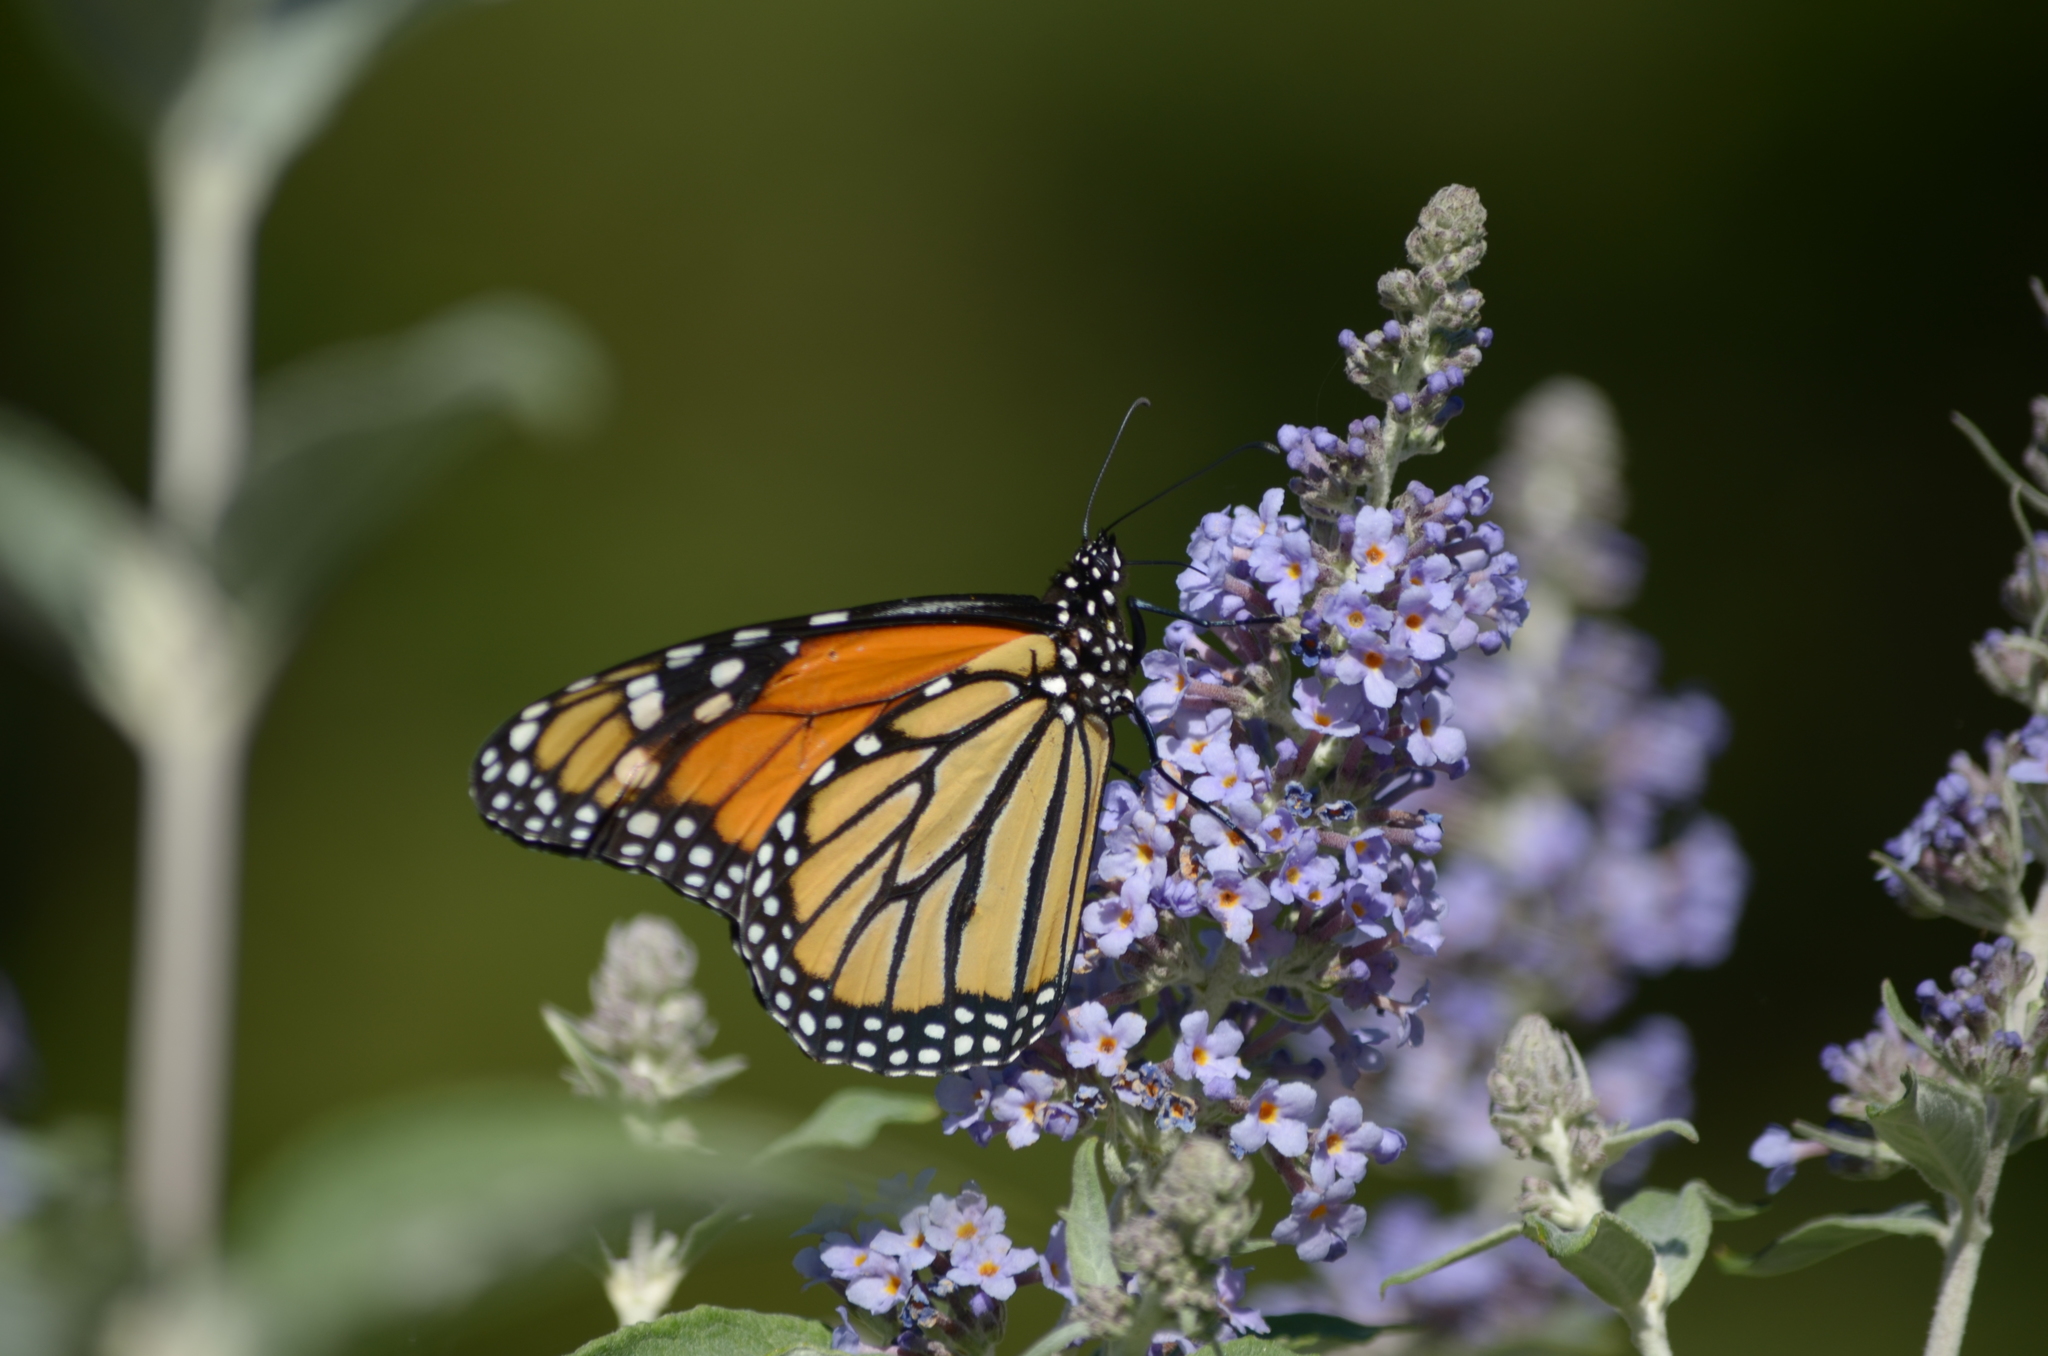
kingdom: Animalia
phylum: Arthropoda
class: Insecta
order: Lepidoptera
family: Nymphalidae
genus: Danaus
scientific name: Danaus plexippus
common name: Monarch
